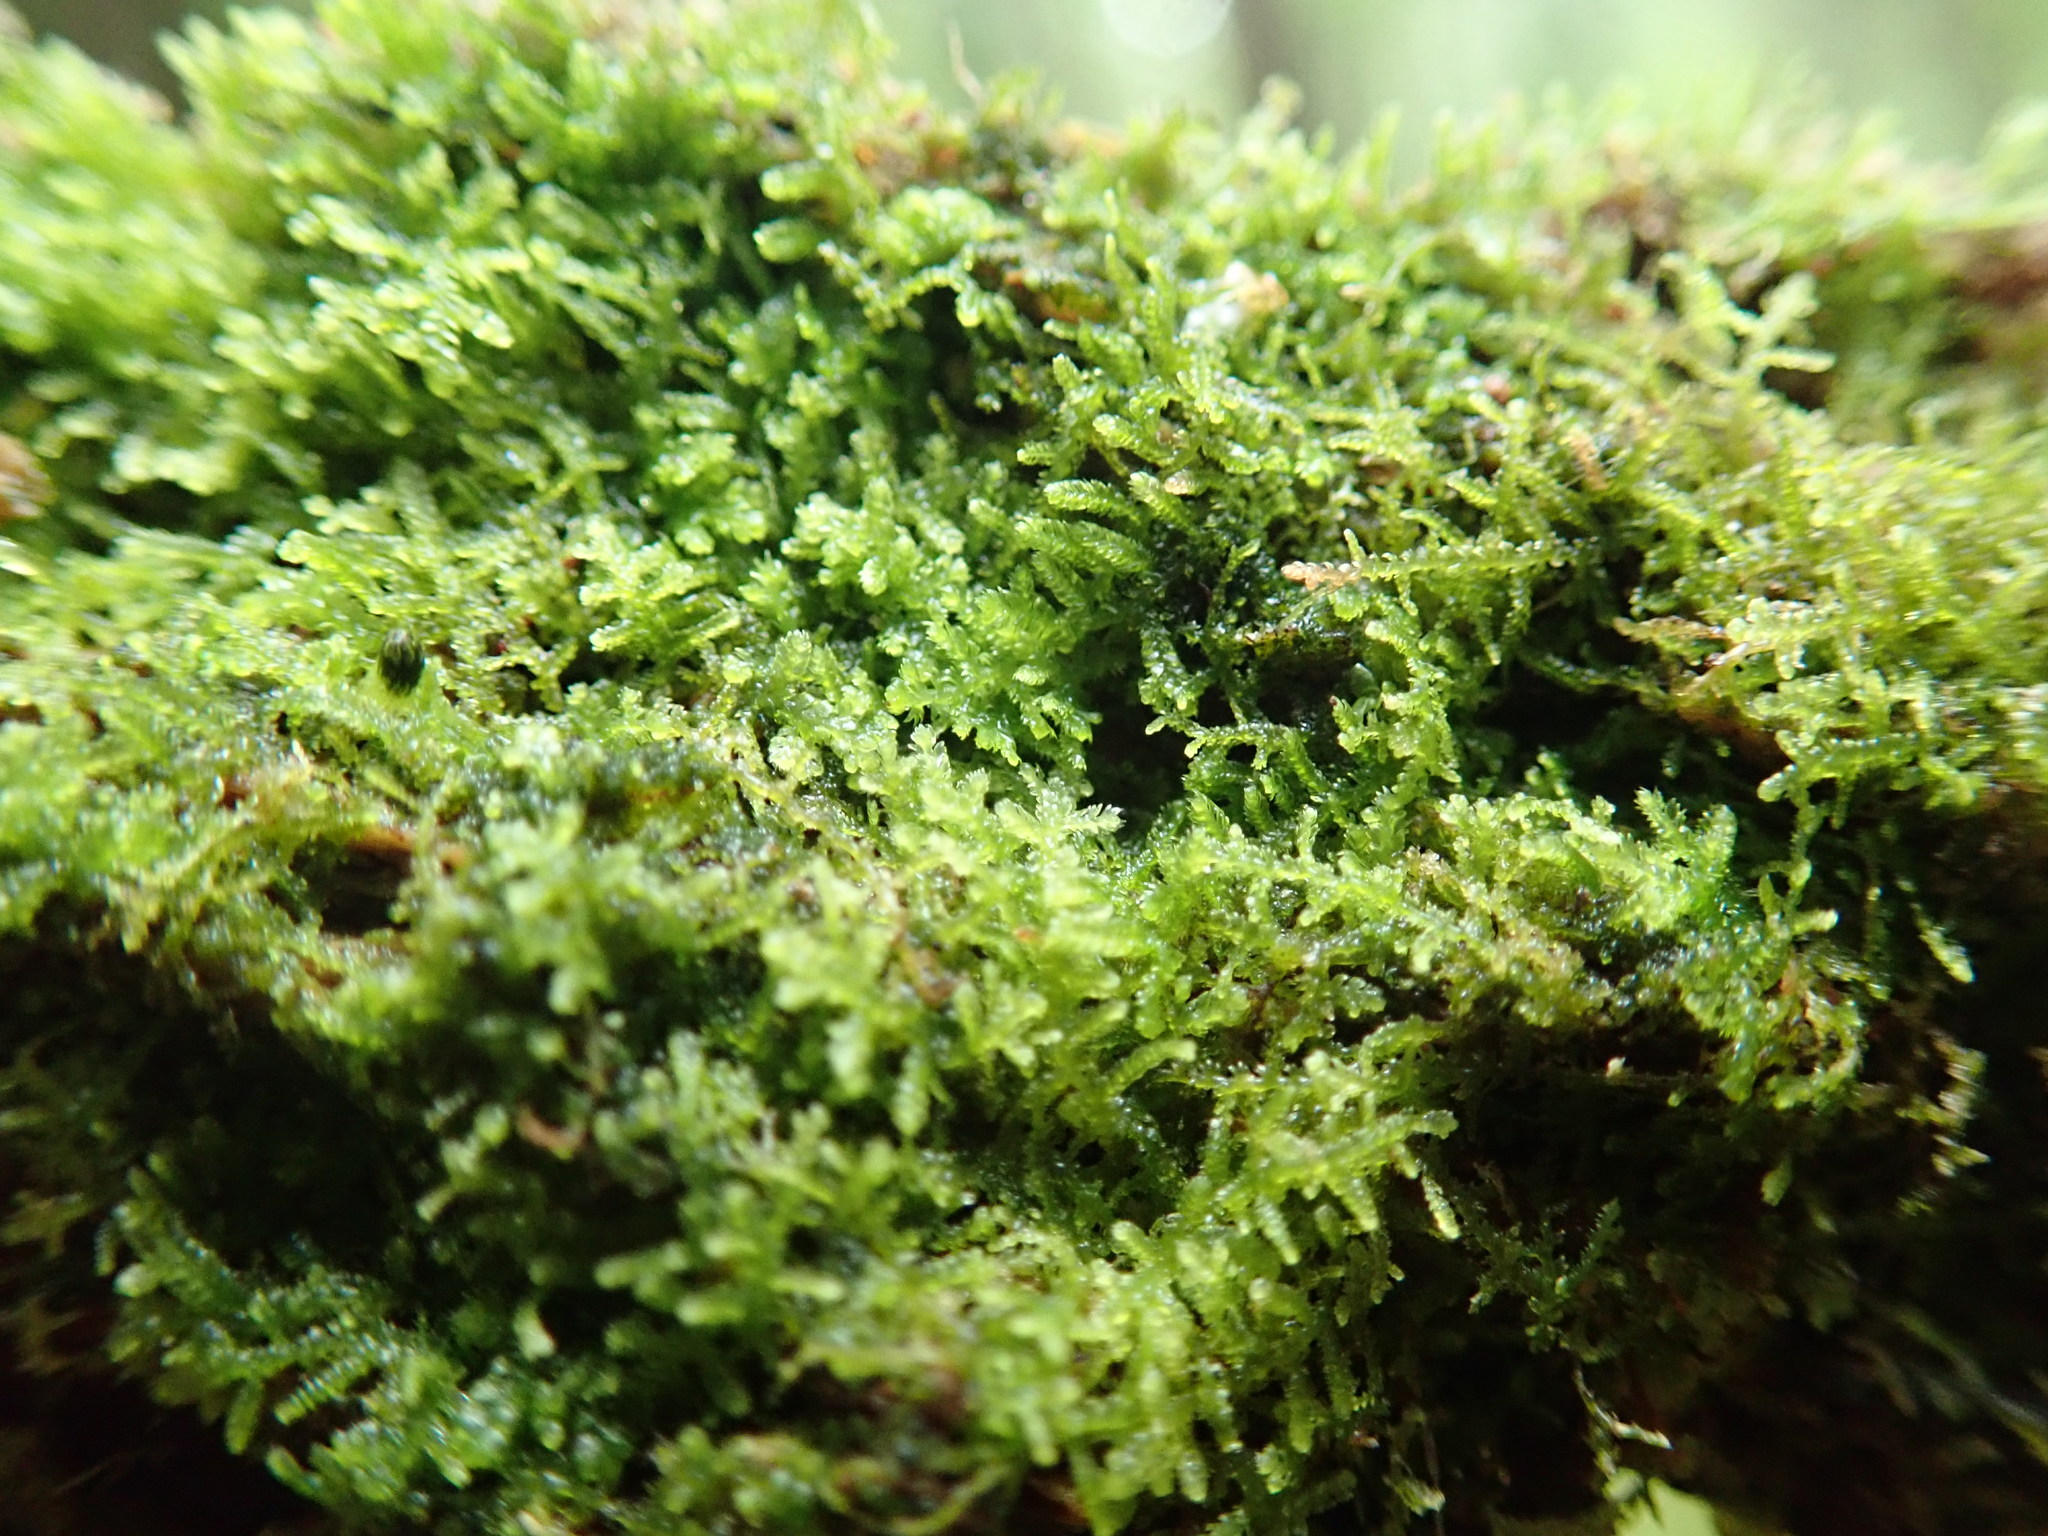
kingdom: Plantae
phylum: Marchantiophyta
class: Jungermanniopsida
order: Jungermanniales
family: Lepidoziaceae
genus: Lepidozia
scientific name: Lepidozia reptans
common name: Creeping fingerwort
